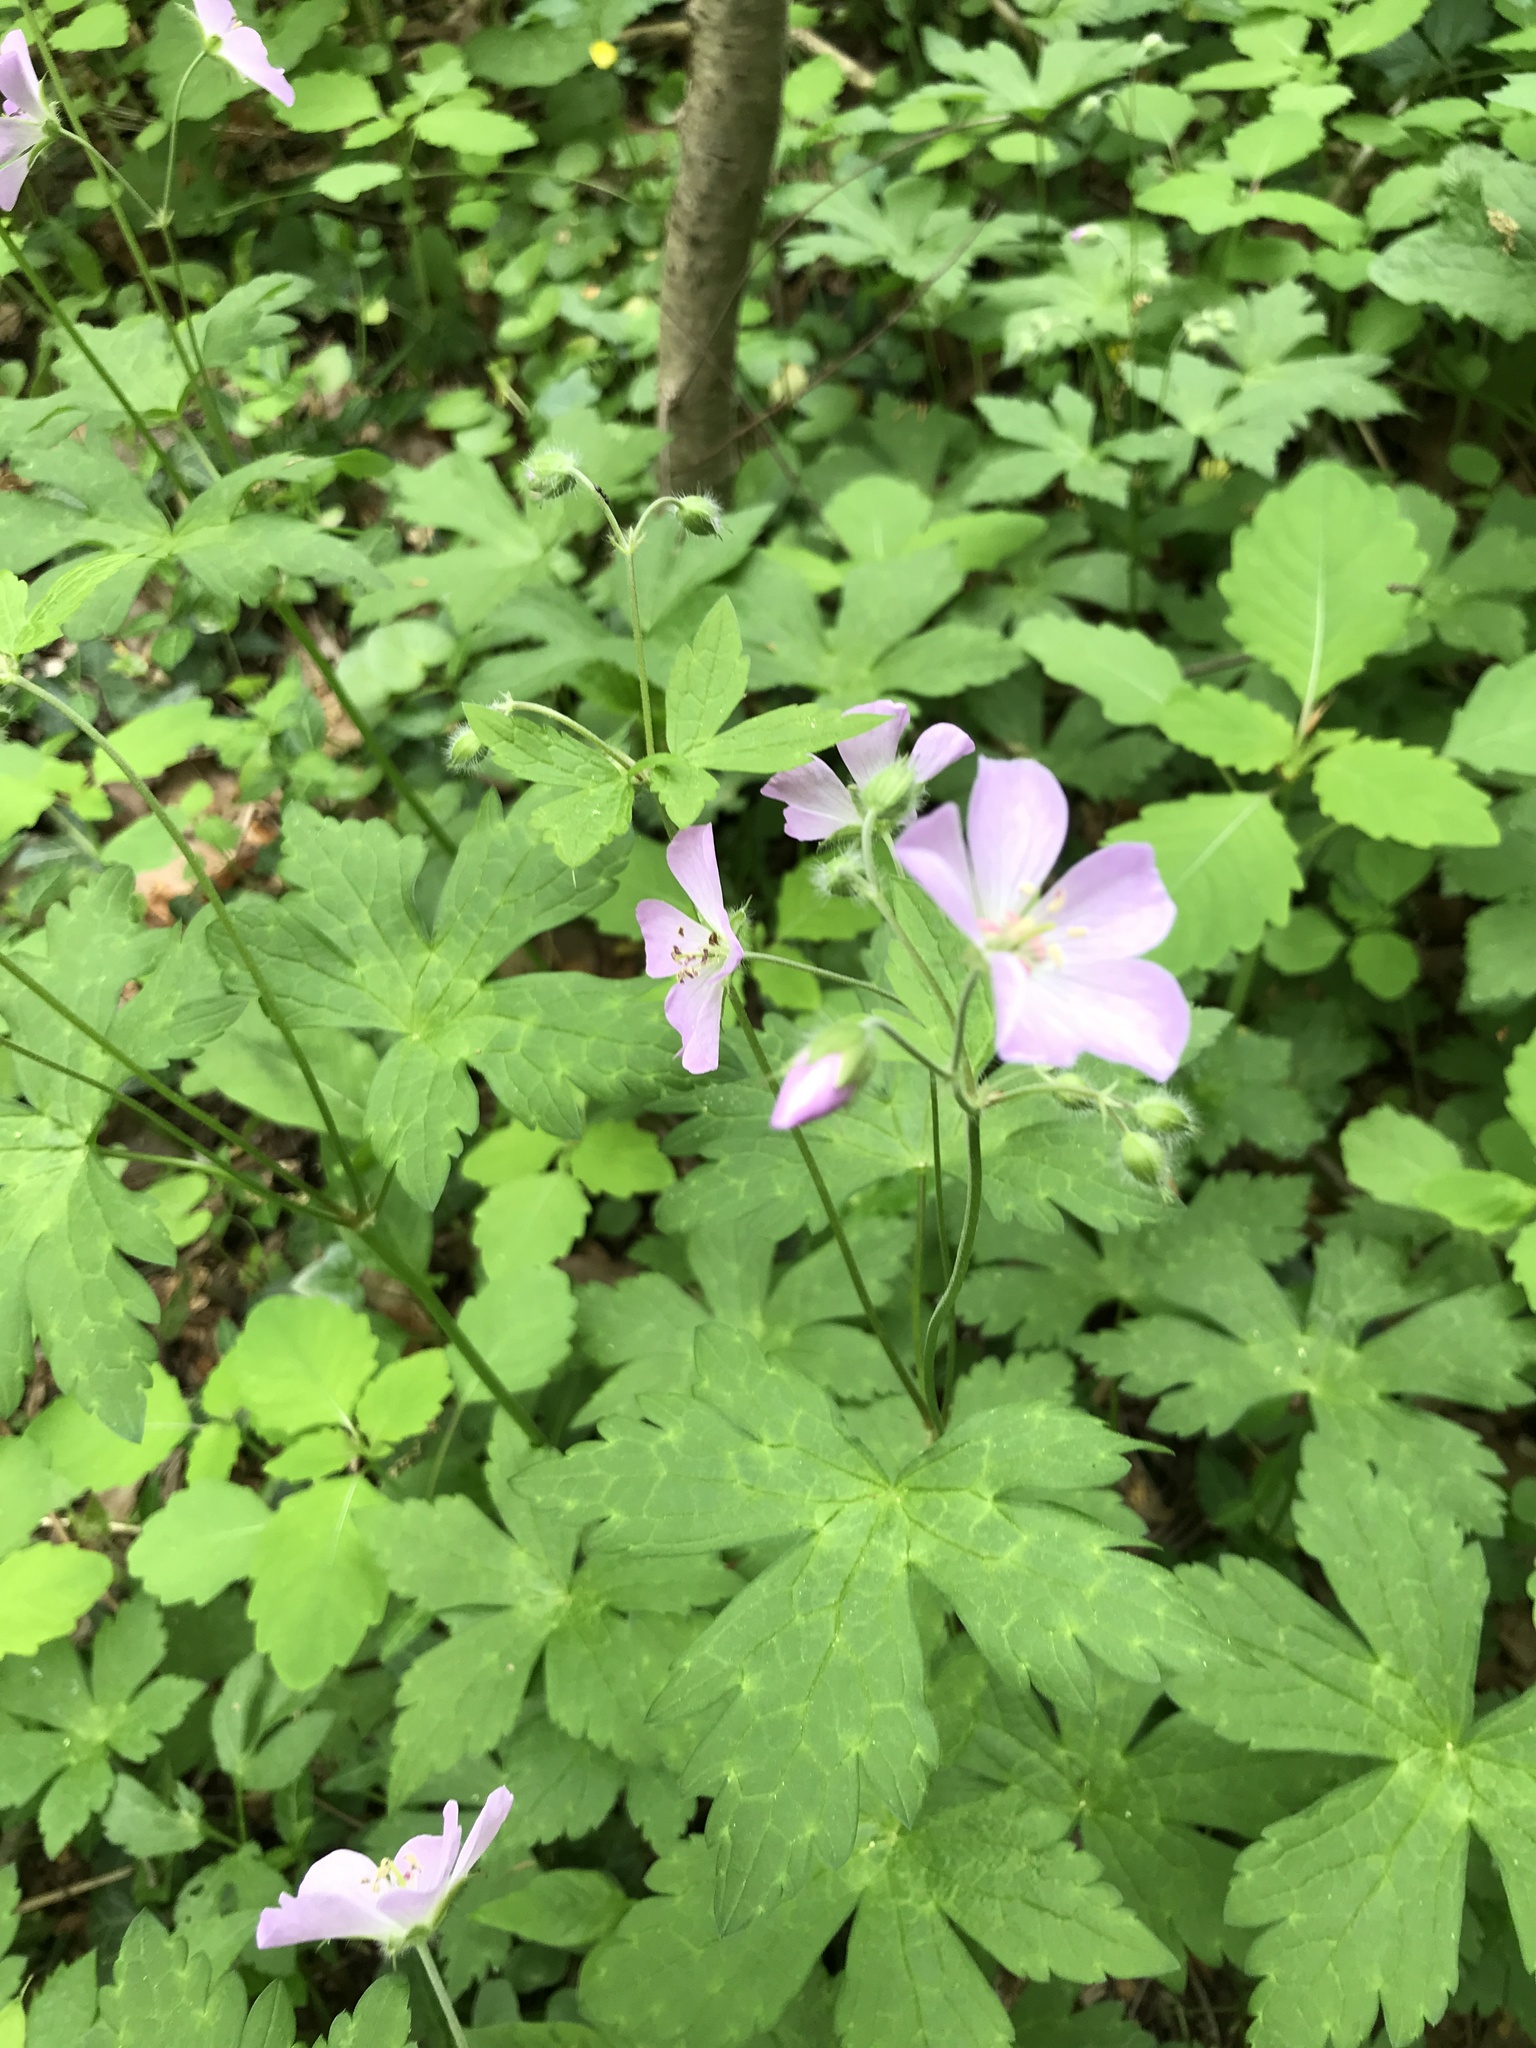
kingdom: Plantae
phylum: Tracheophyta
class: Magnoliopsida
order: Geraniales
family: Geraniaceae
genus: Geranium
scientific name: Geranium maculatum
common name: Spotted geranium
